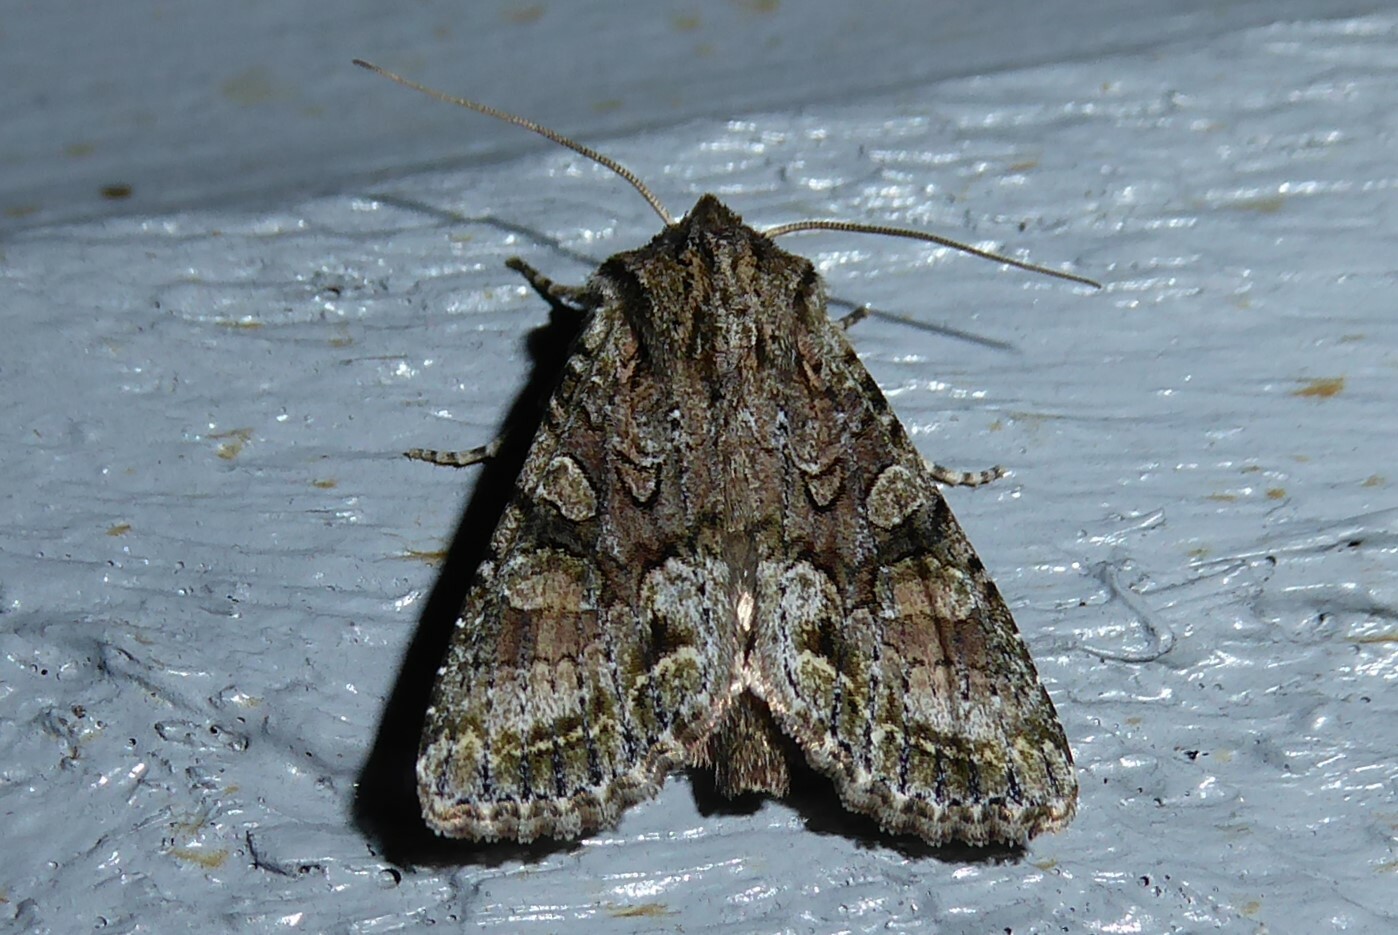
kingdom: Animalia
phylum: Arthropoda
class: Insecta
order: Lepidoptera
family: Noctuidae
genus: Ichneutica
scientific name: Ichneutica mutans
